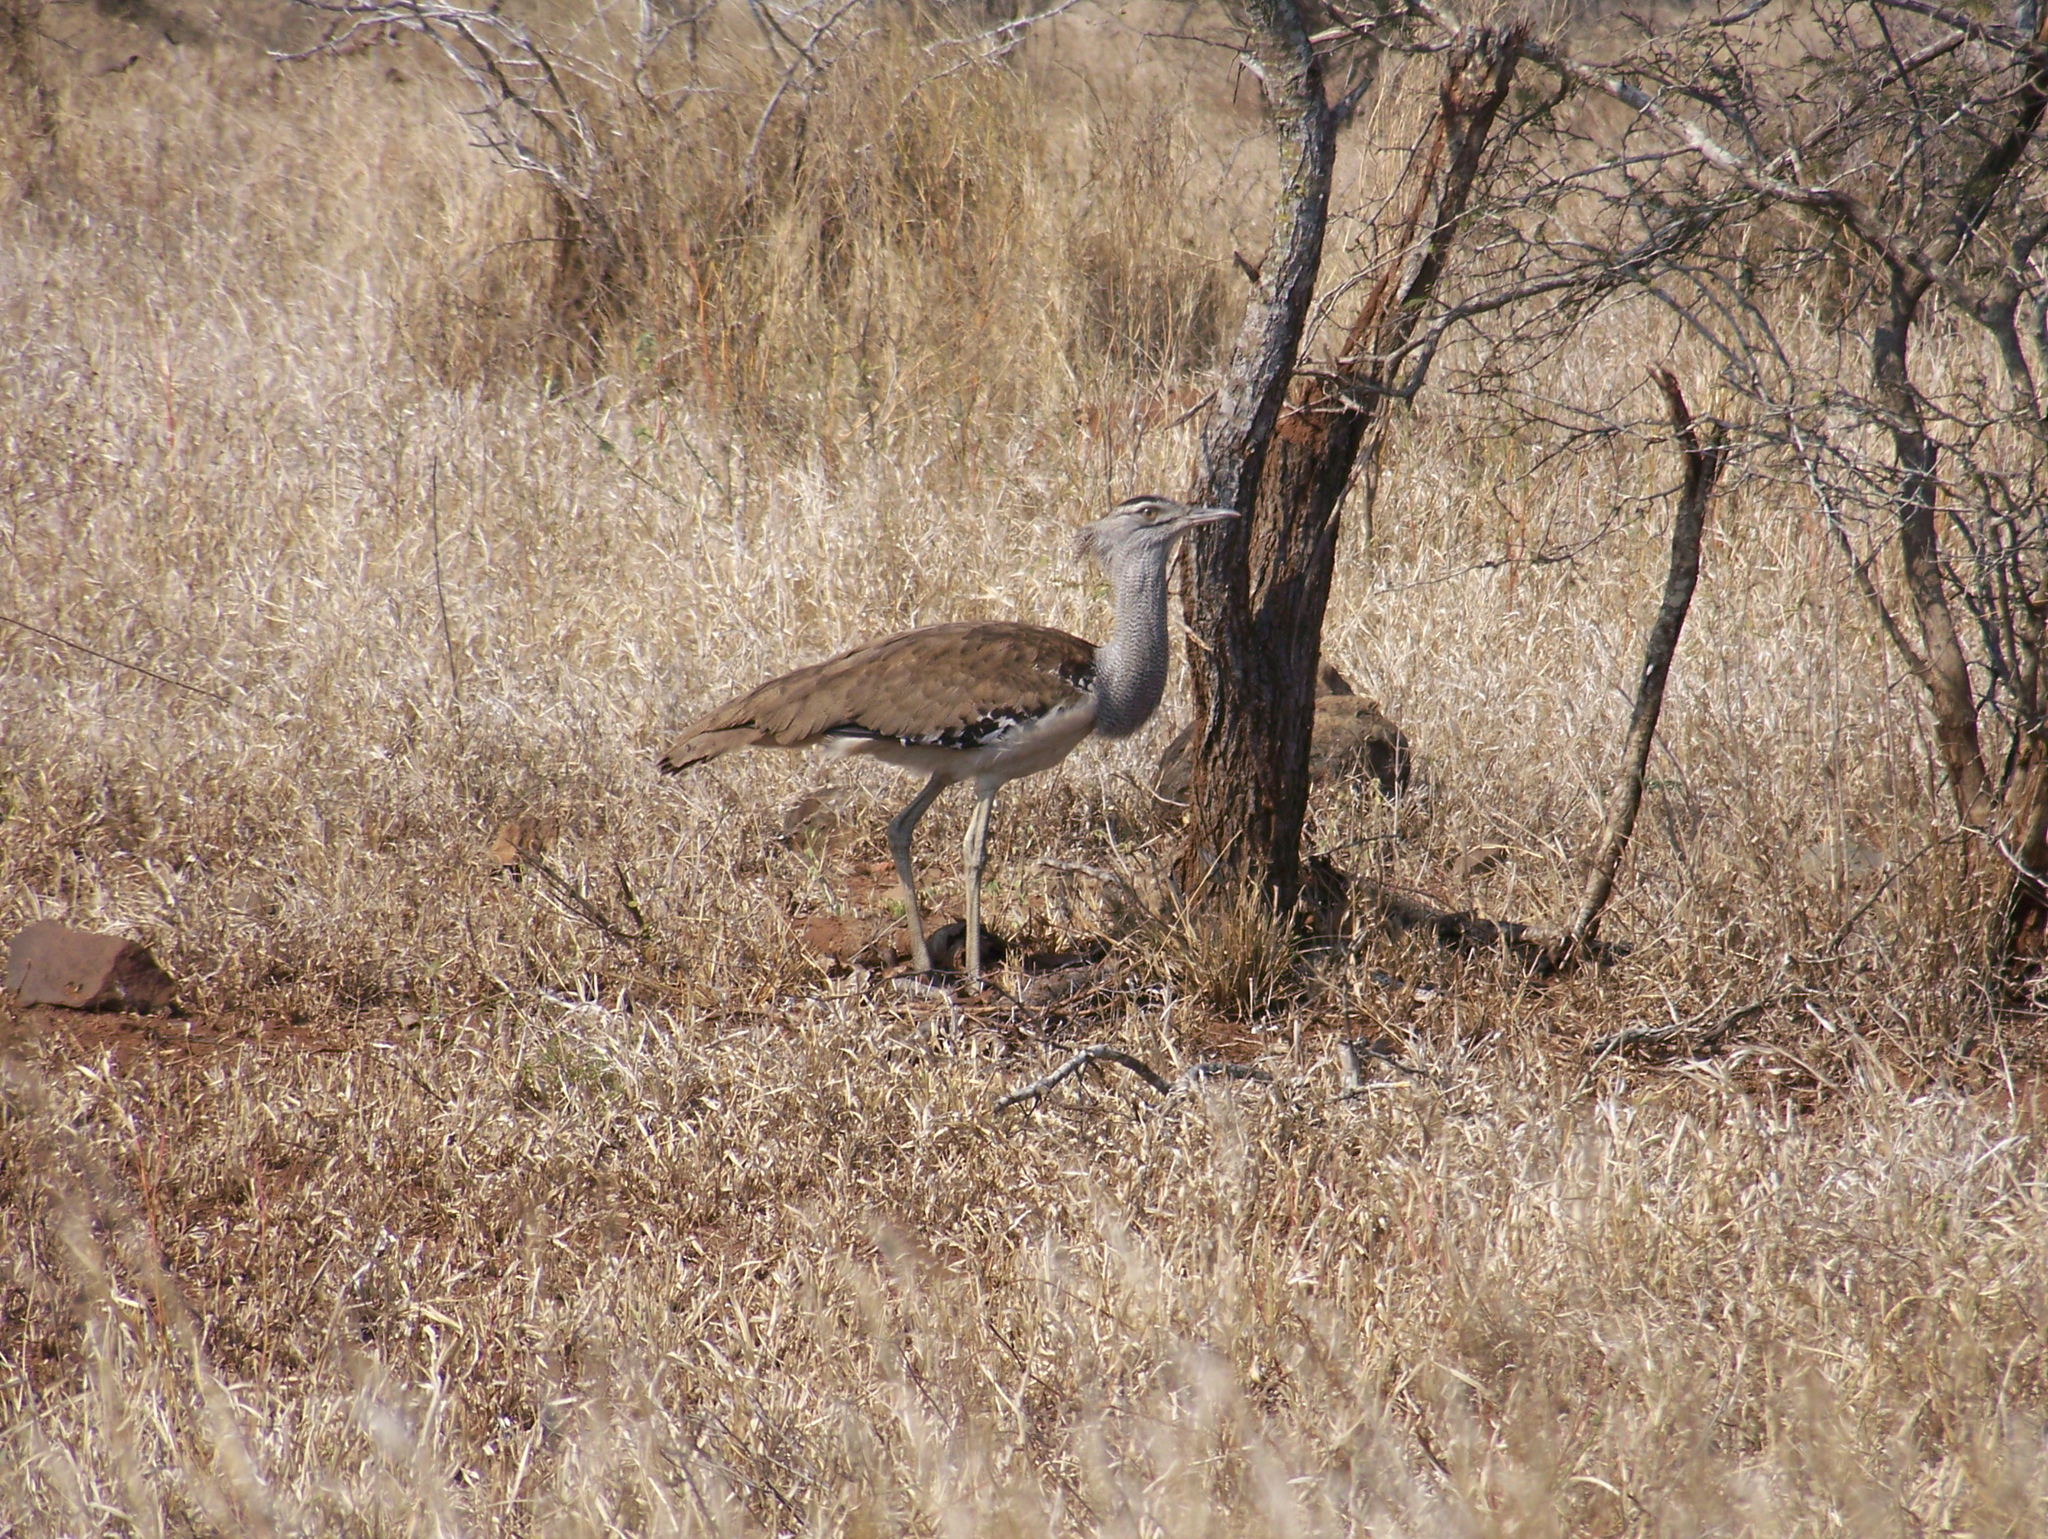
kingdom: Animalia
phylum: Chordata
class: Aves
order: Otidiformes
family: Otididae
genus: Ardeotis
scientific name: Ardeotis kori
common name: Kori bustard
